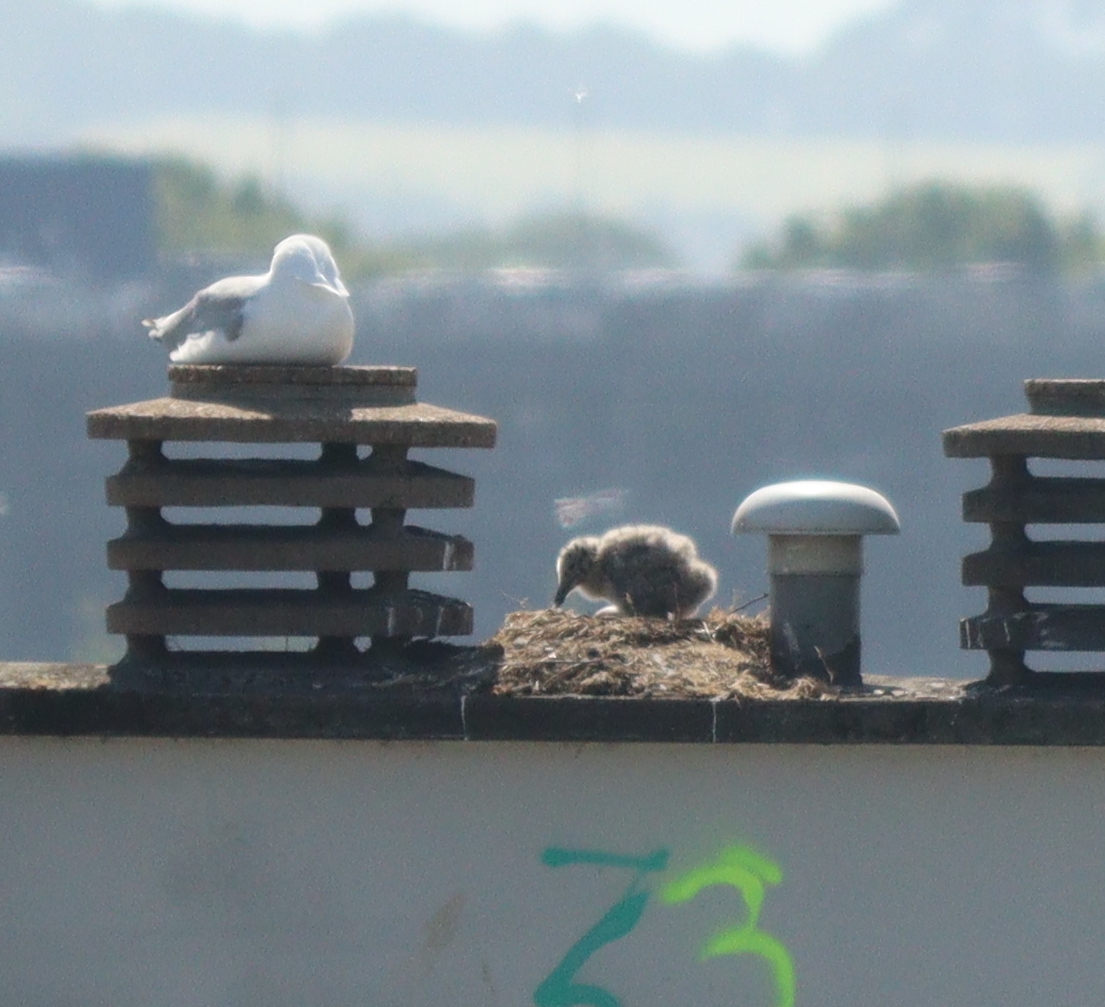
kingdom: Animalia
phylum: Chordata
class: Aves
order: Charadriiformes
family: Laridae
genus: Larus
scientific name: Larus argentatus
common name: Herring gull
